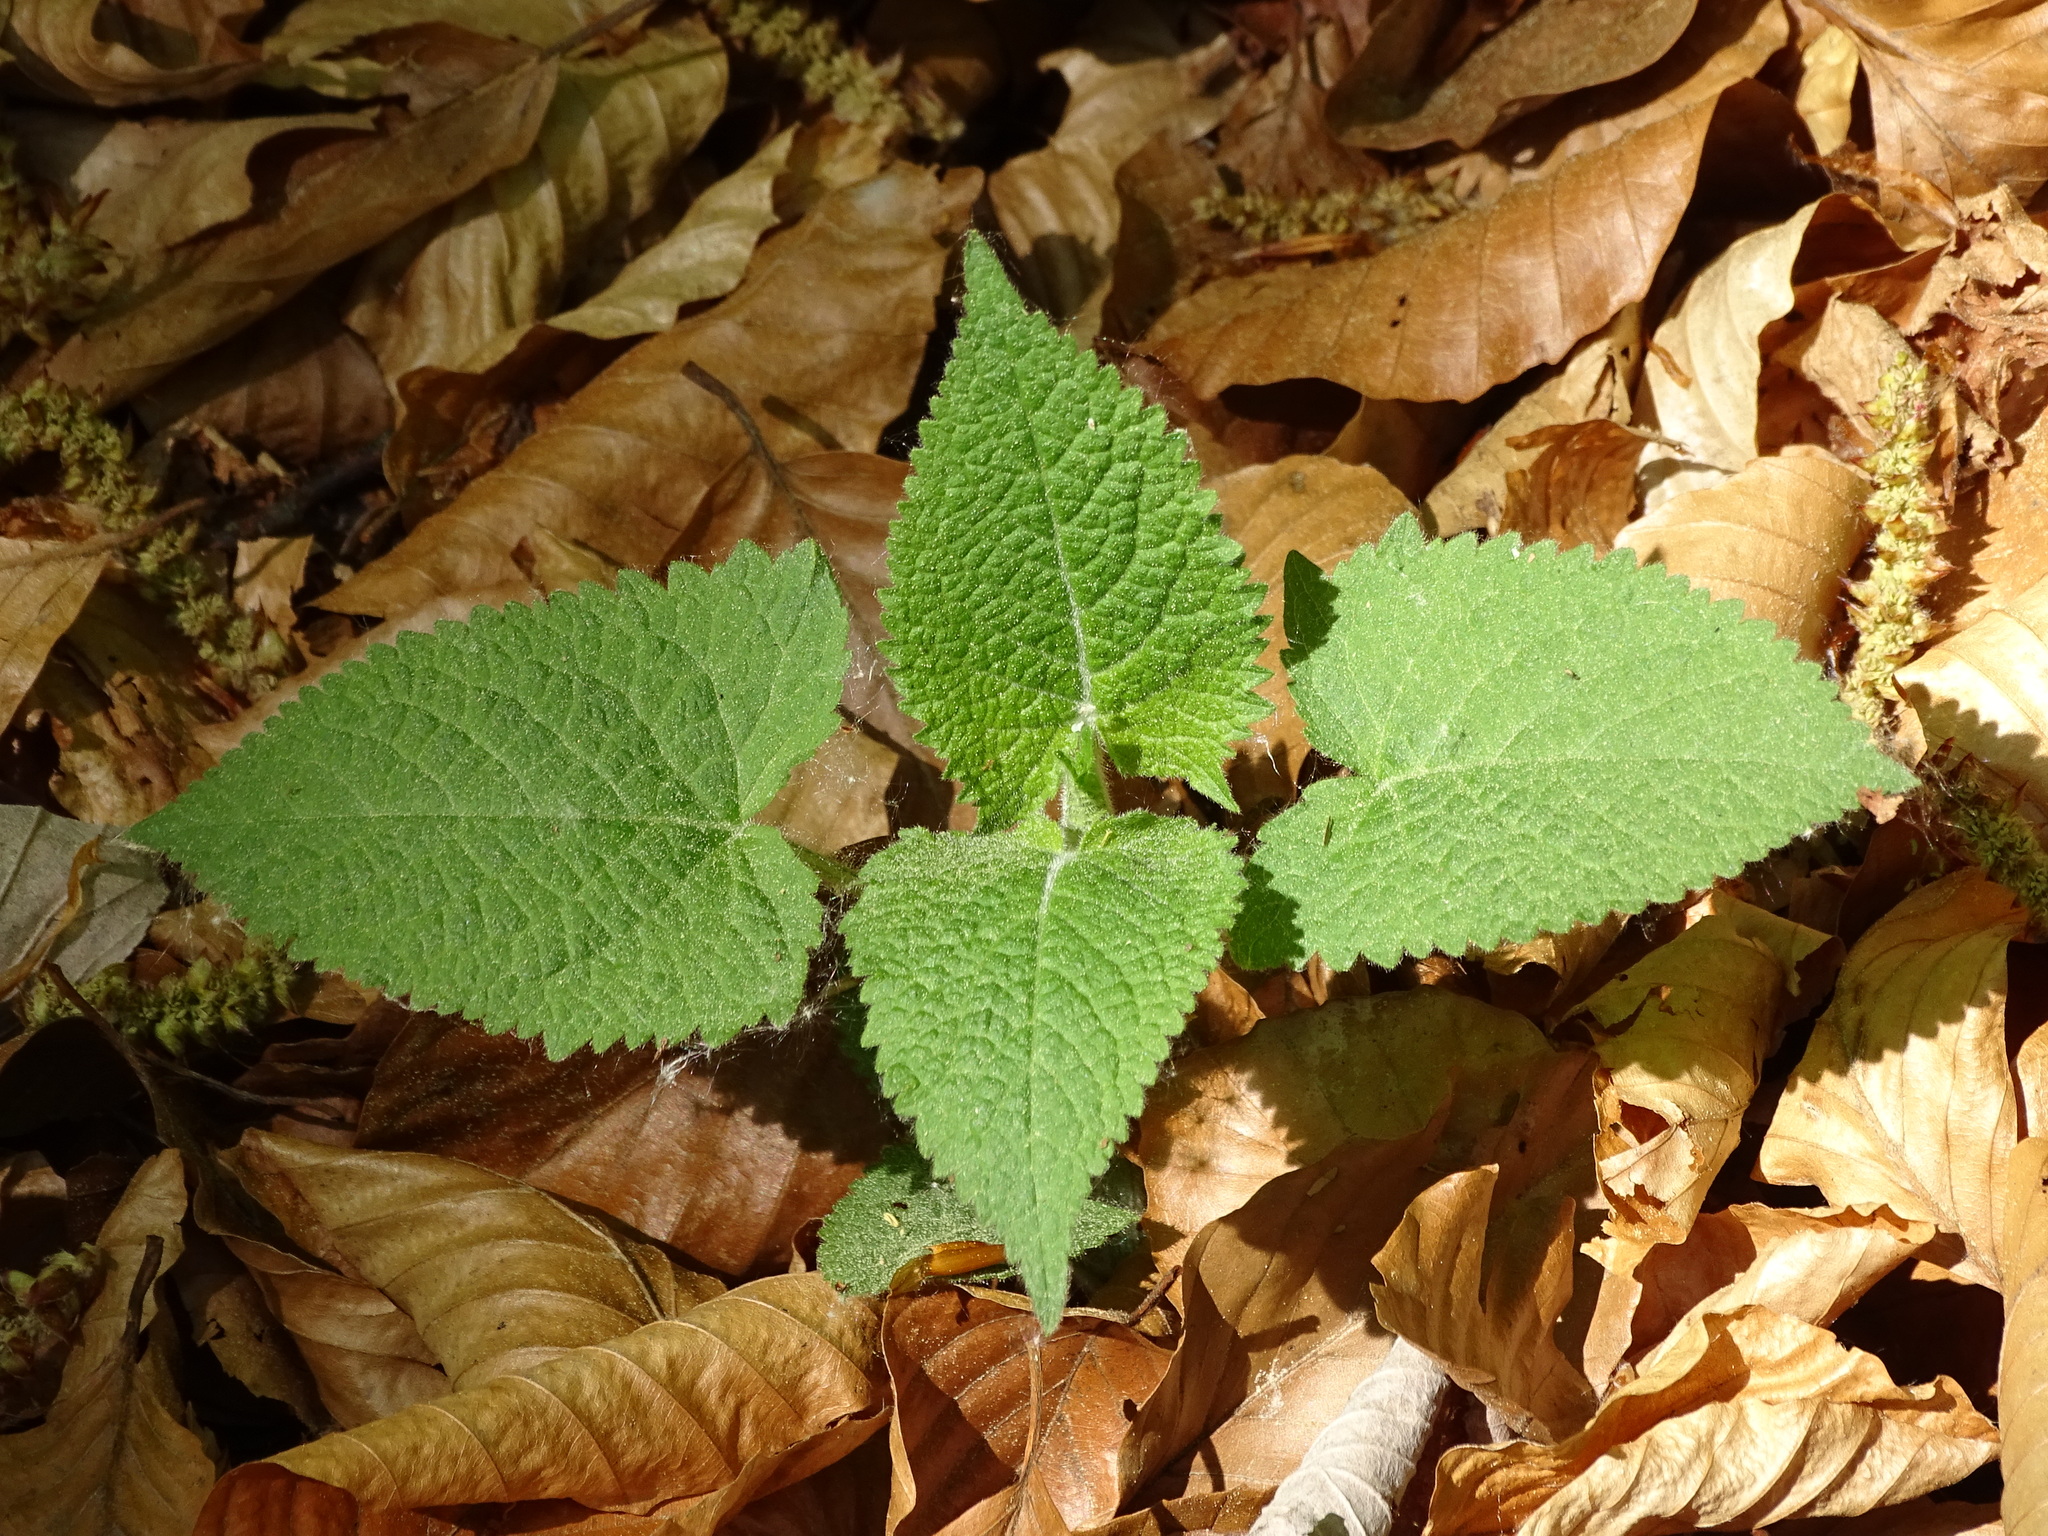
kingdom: Plantae
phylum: Tracheophyta
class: Magnoliopsida
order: Lamiales
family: Lamiaceae
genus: Salvia
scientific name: Salvia glutinosa
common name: Sticky clary
